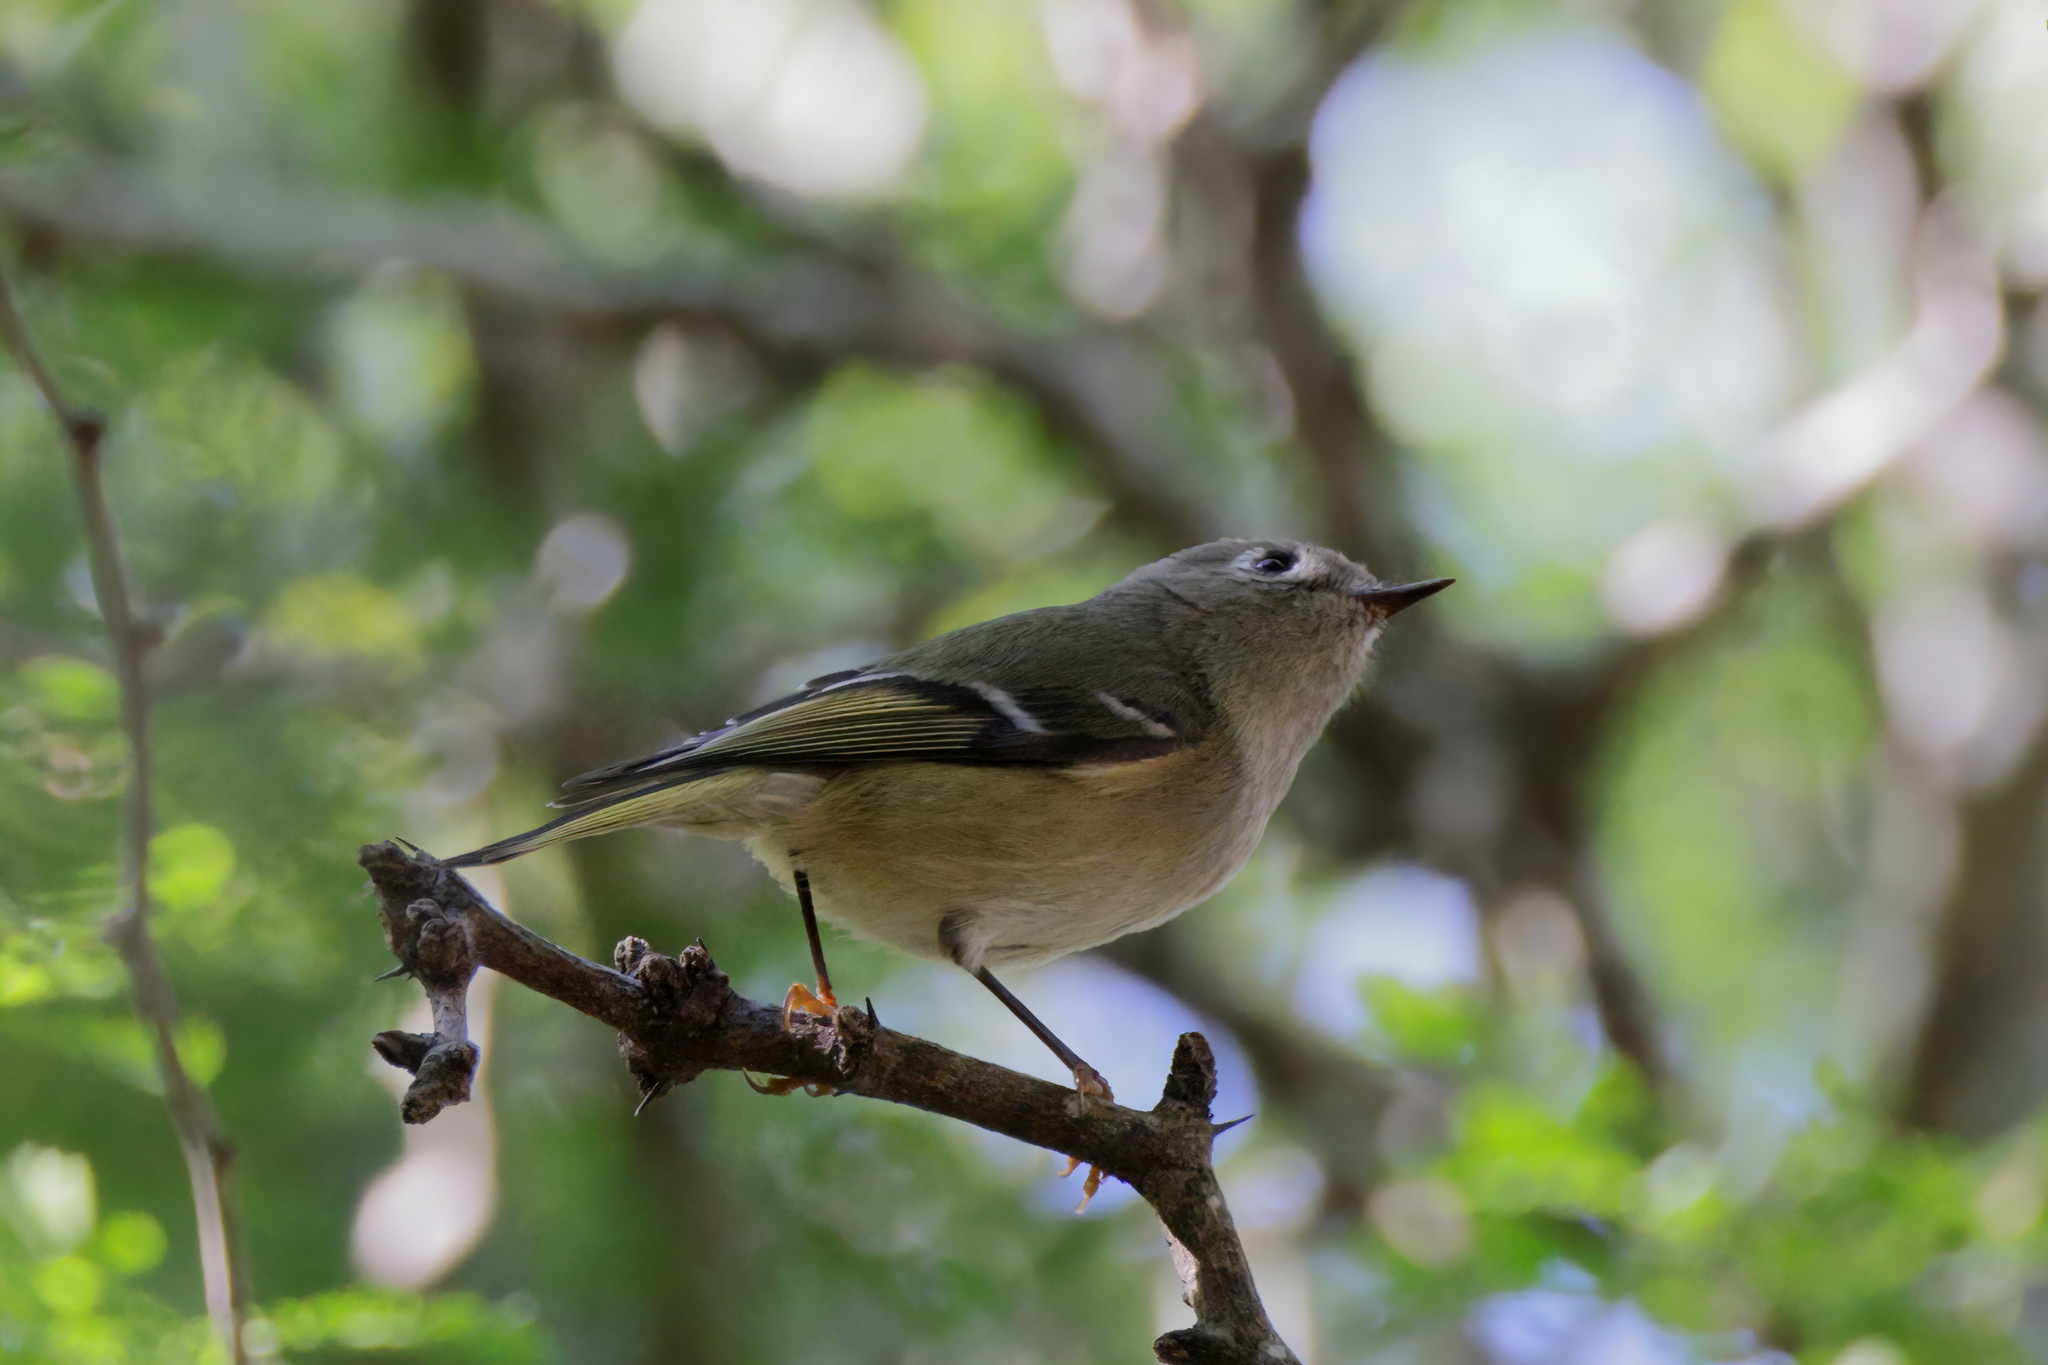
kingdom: Animalia
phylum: Chordata
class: Aves
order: Passeriformes
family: Regulidae
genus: Regulus
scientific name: Regulus calendula
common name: Ruby-crowned kinglet
